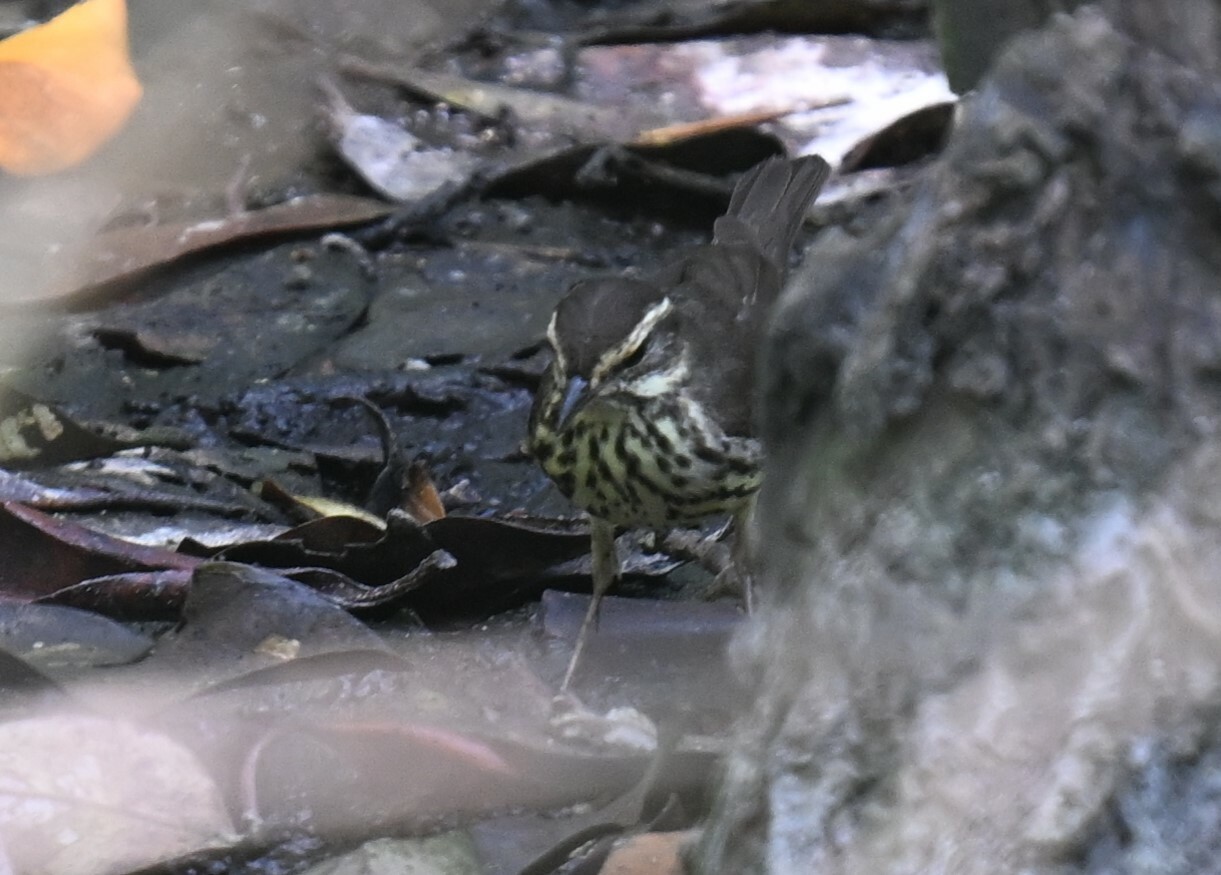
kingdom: Animalia
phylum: Chordata
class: Aves
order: Passeriformes
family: Parulidae
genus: Parkesia
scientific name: Parkesia noveboracensis
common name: Northern waterthrush
